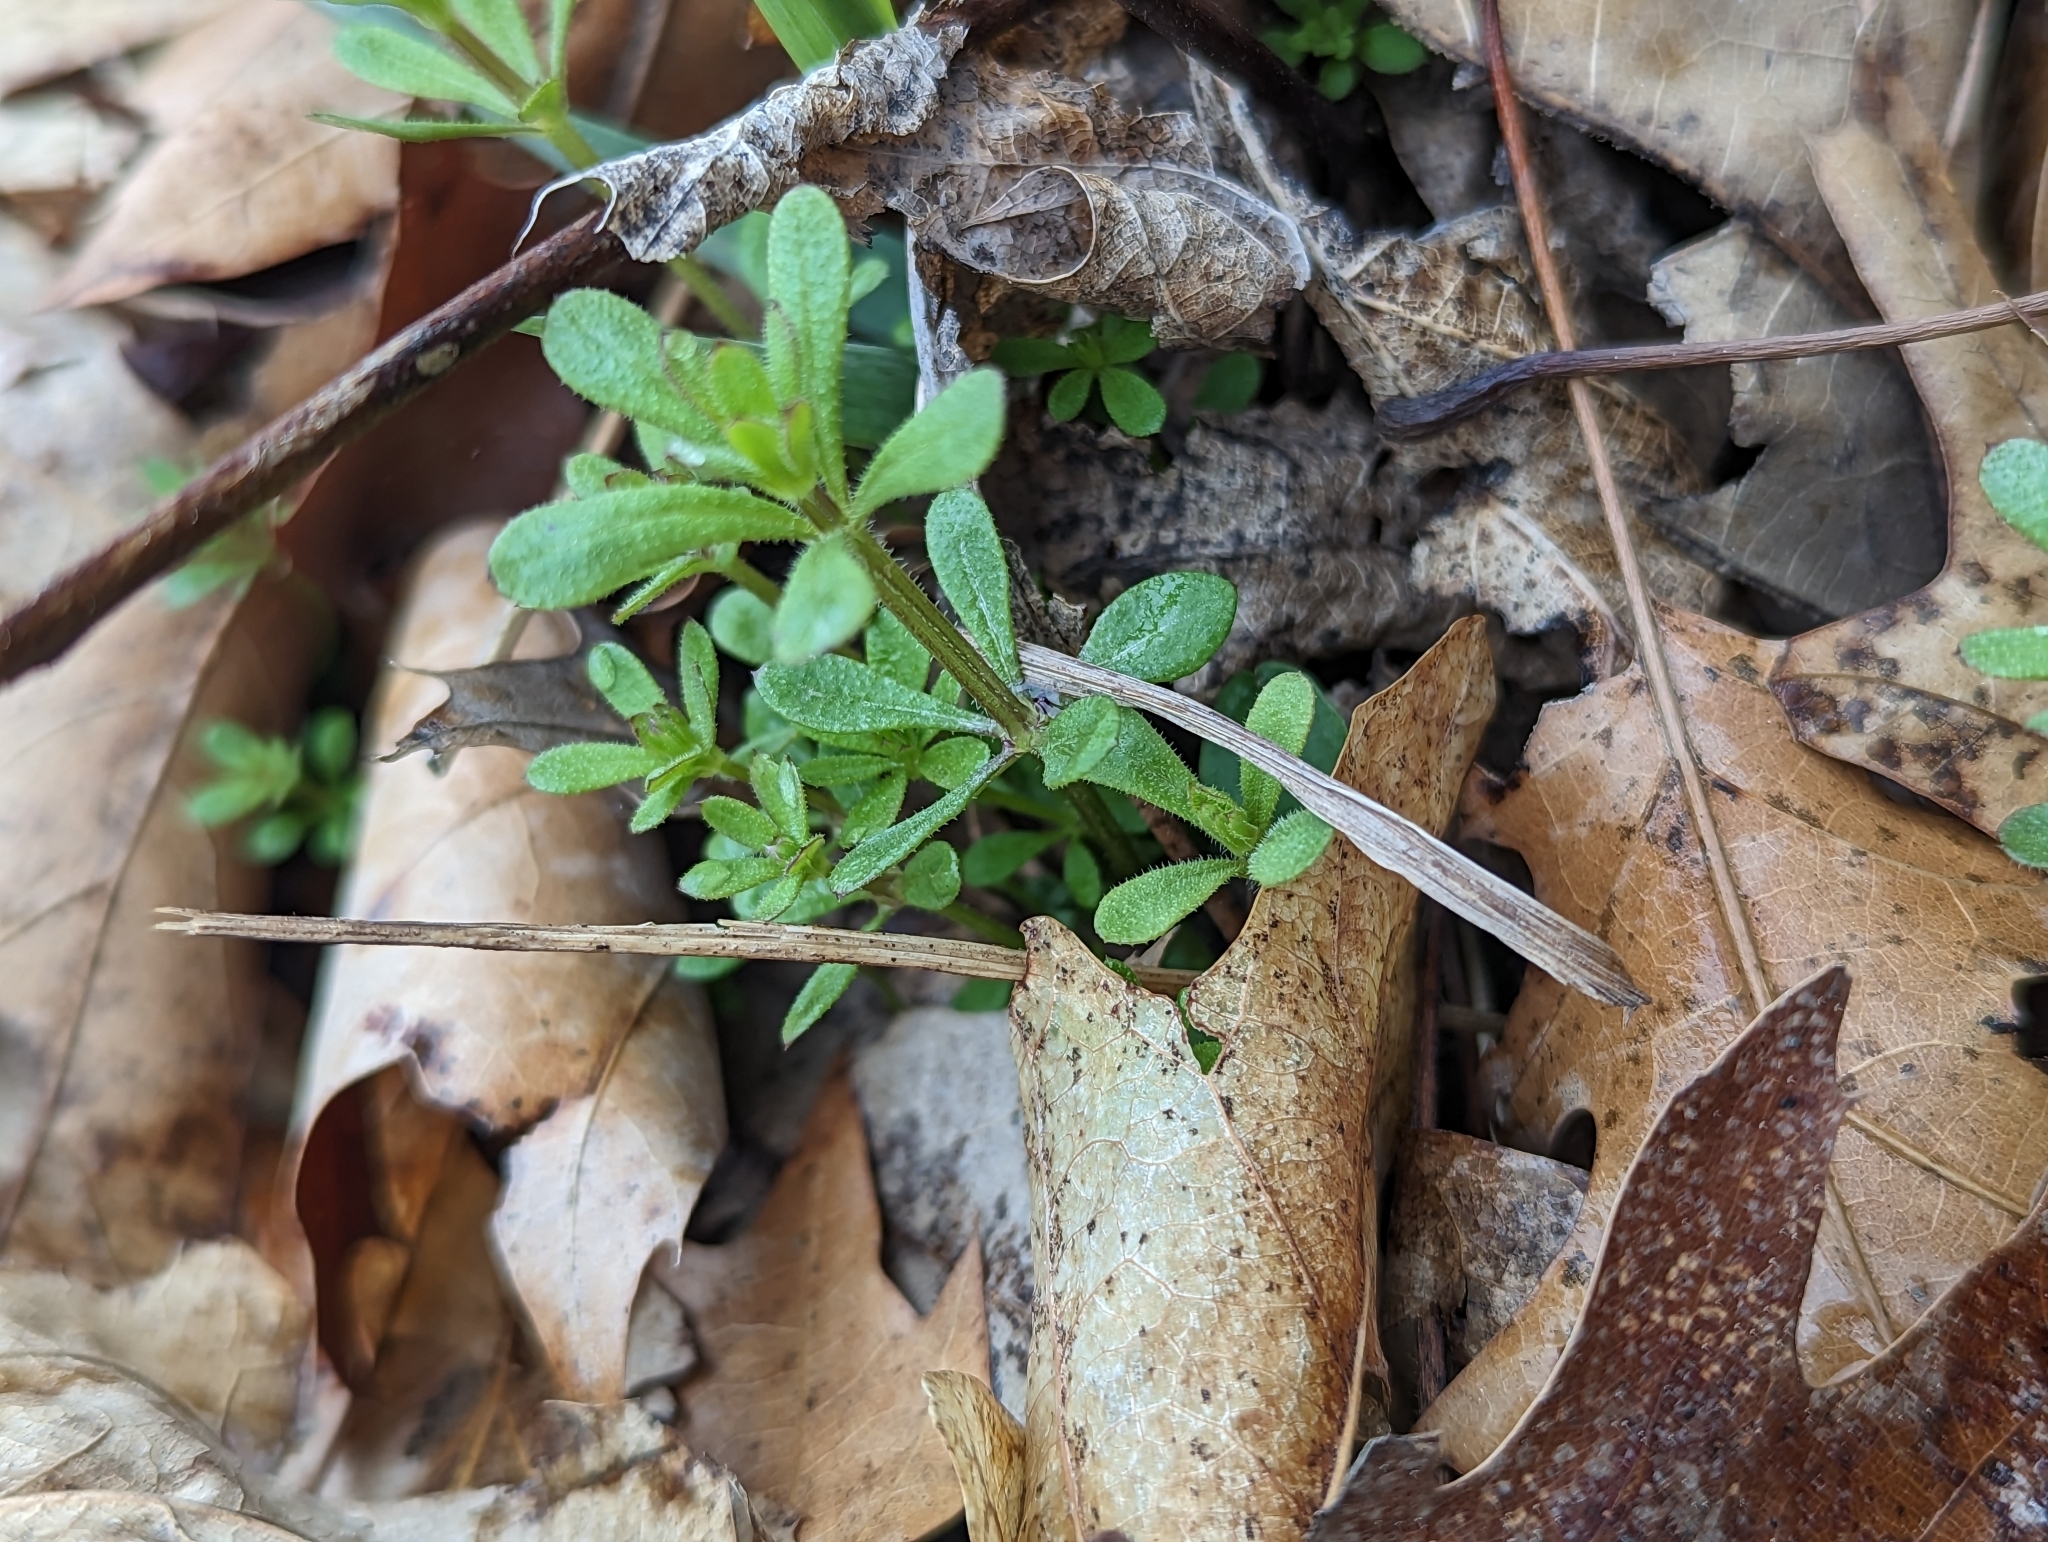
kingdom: Plantae
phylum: Tracheophyta
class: Magnoliopsida
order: Gentianales
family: Rubiaceae
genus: Galium
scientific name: Galium aparine
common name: Cleavers
